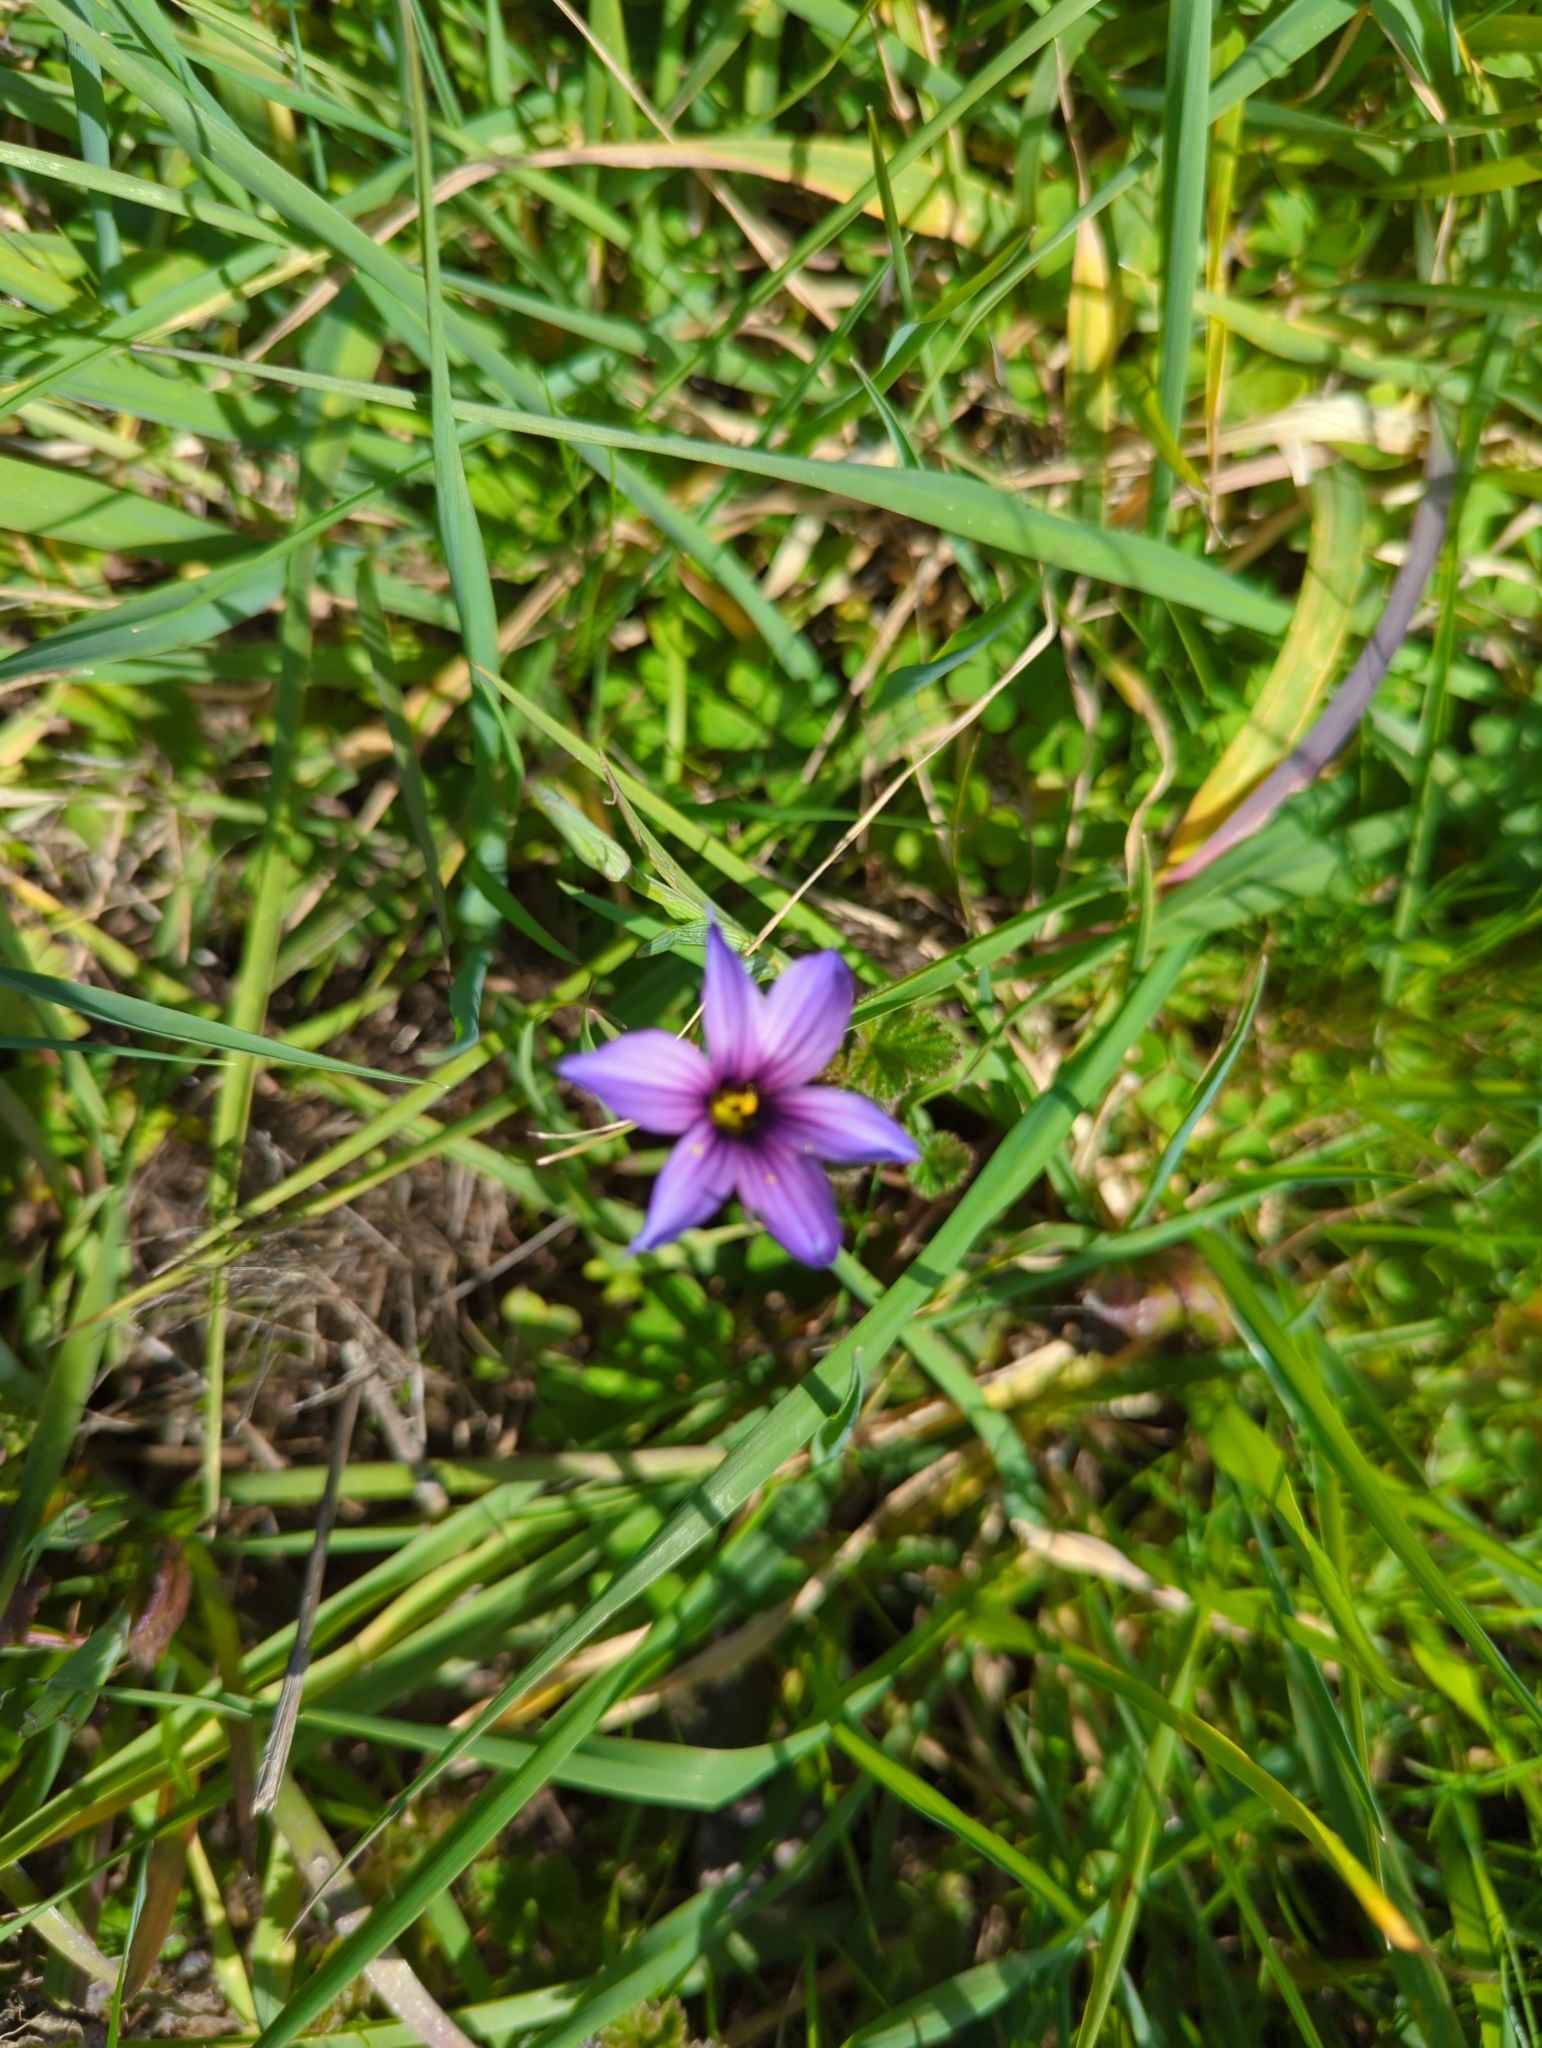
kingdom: Plantae
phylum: Tracheophyta
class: Liliopsida
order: Asparagales
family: Iridaceae
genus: Sisyrinchium
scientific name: Sisyrinchium bellum
